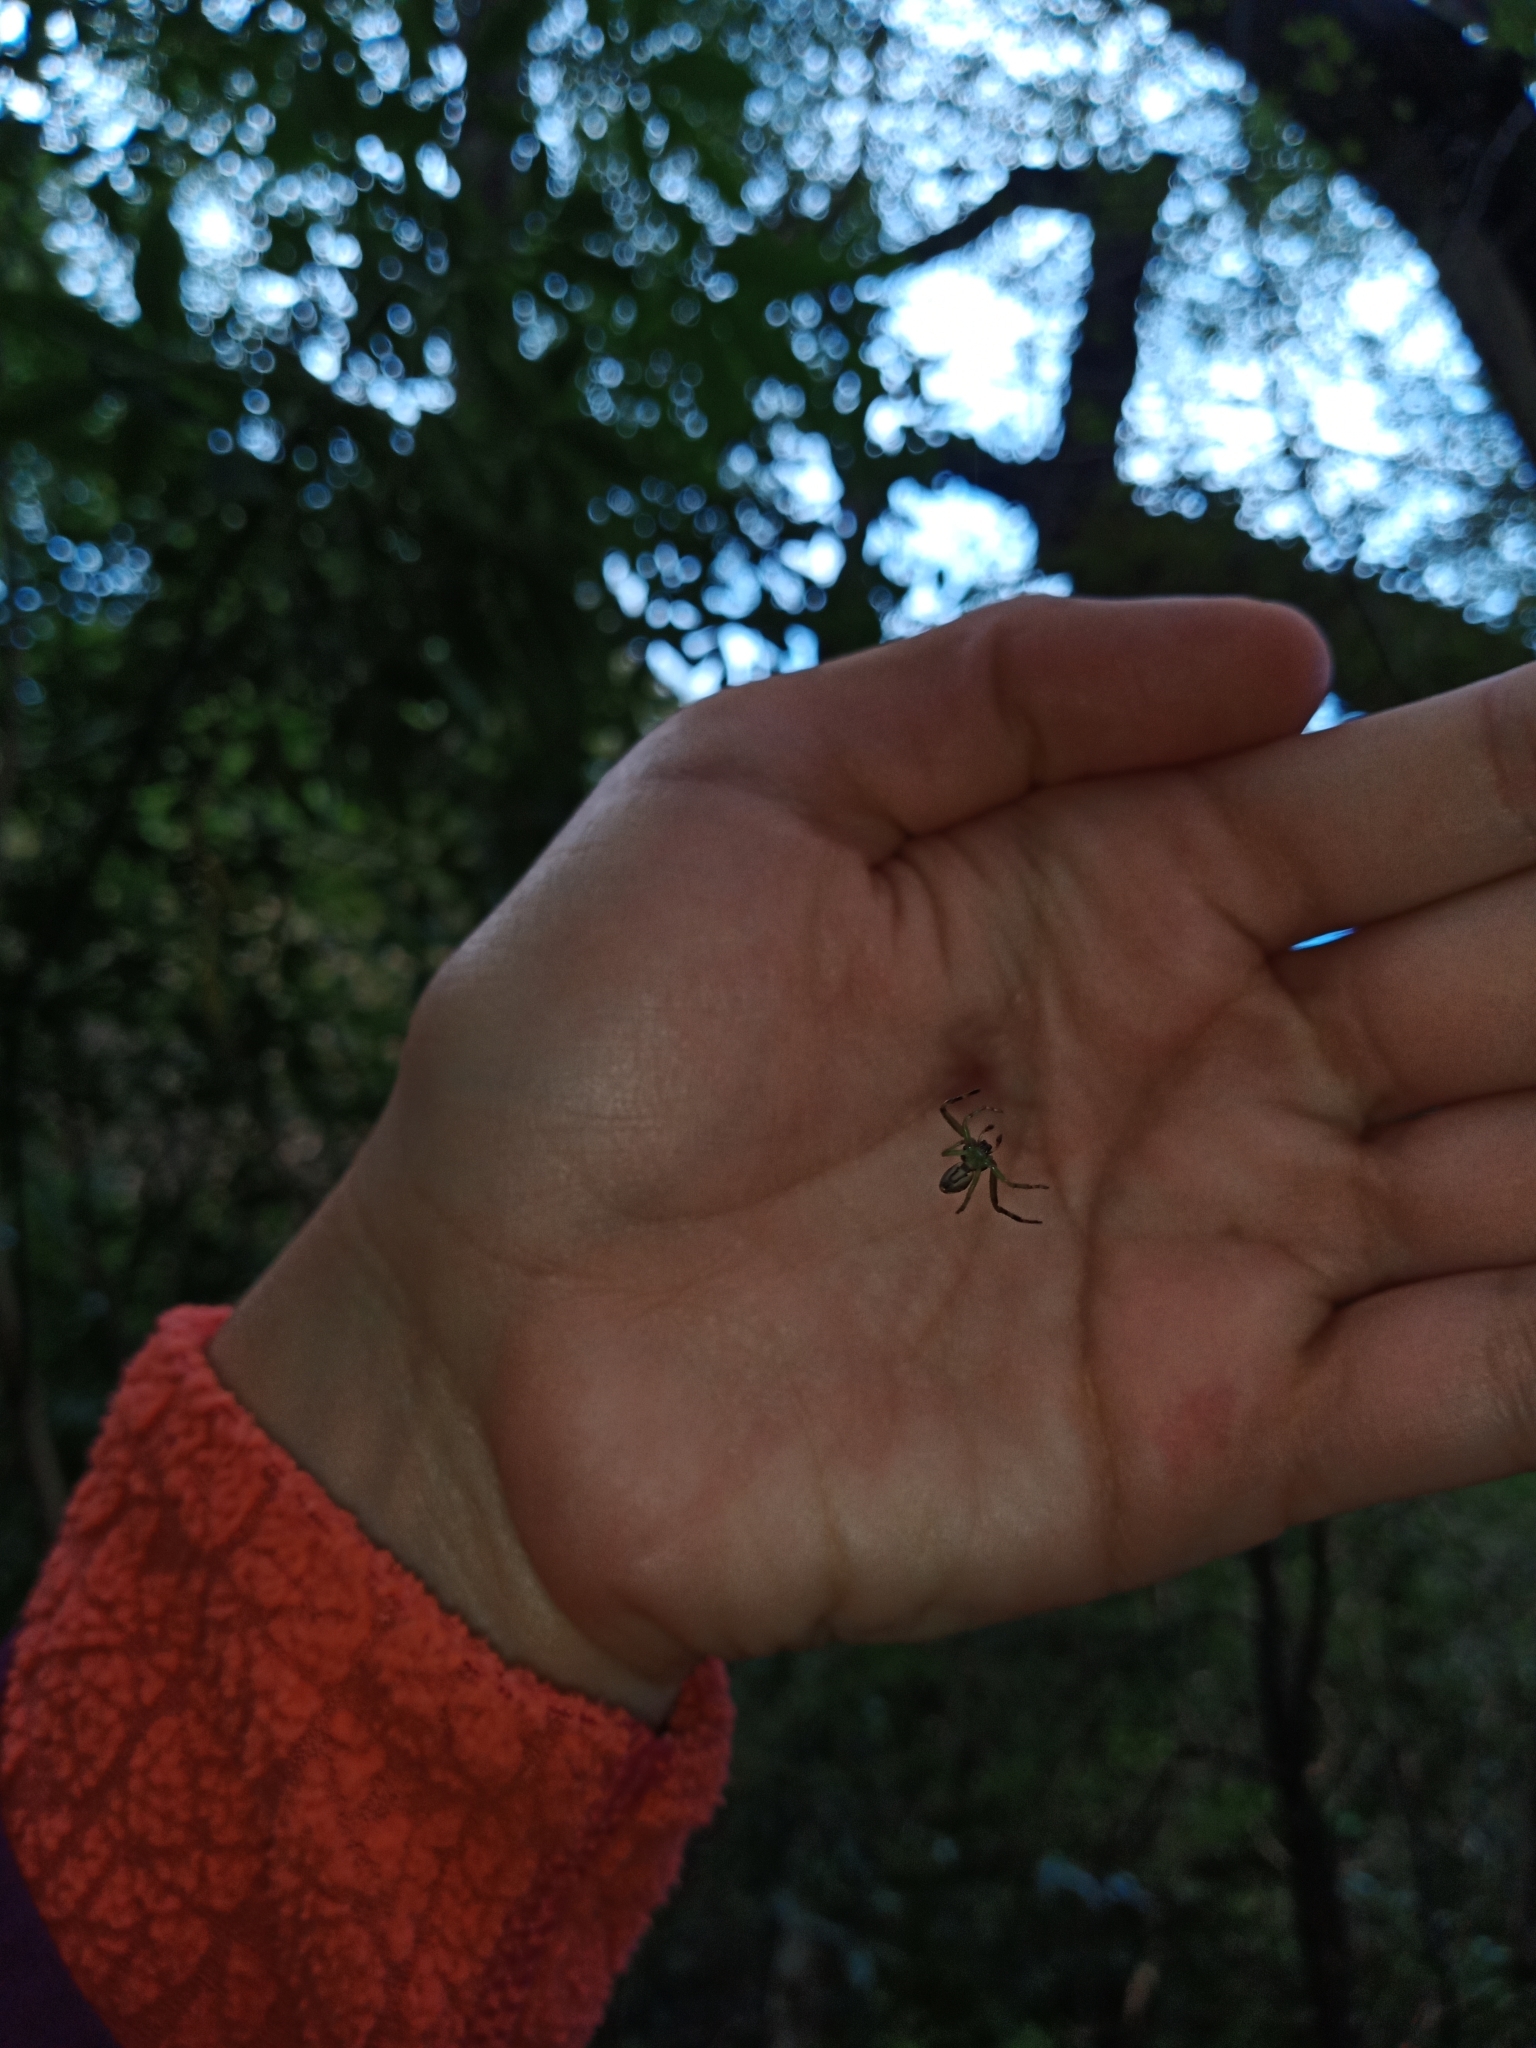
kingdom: Animalia
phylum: Arthropoda
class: Arachnida
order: Araneae
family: Thomisidae
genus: Diaea
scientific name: Diaea ambara
